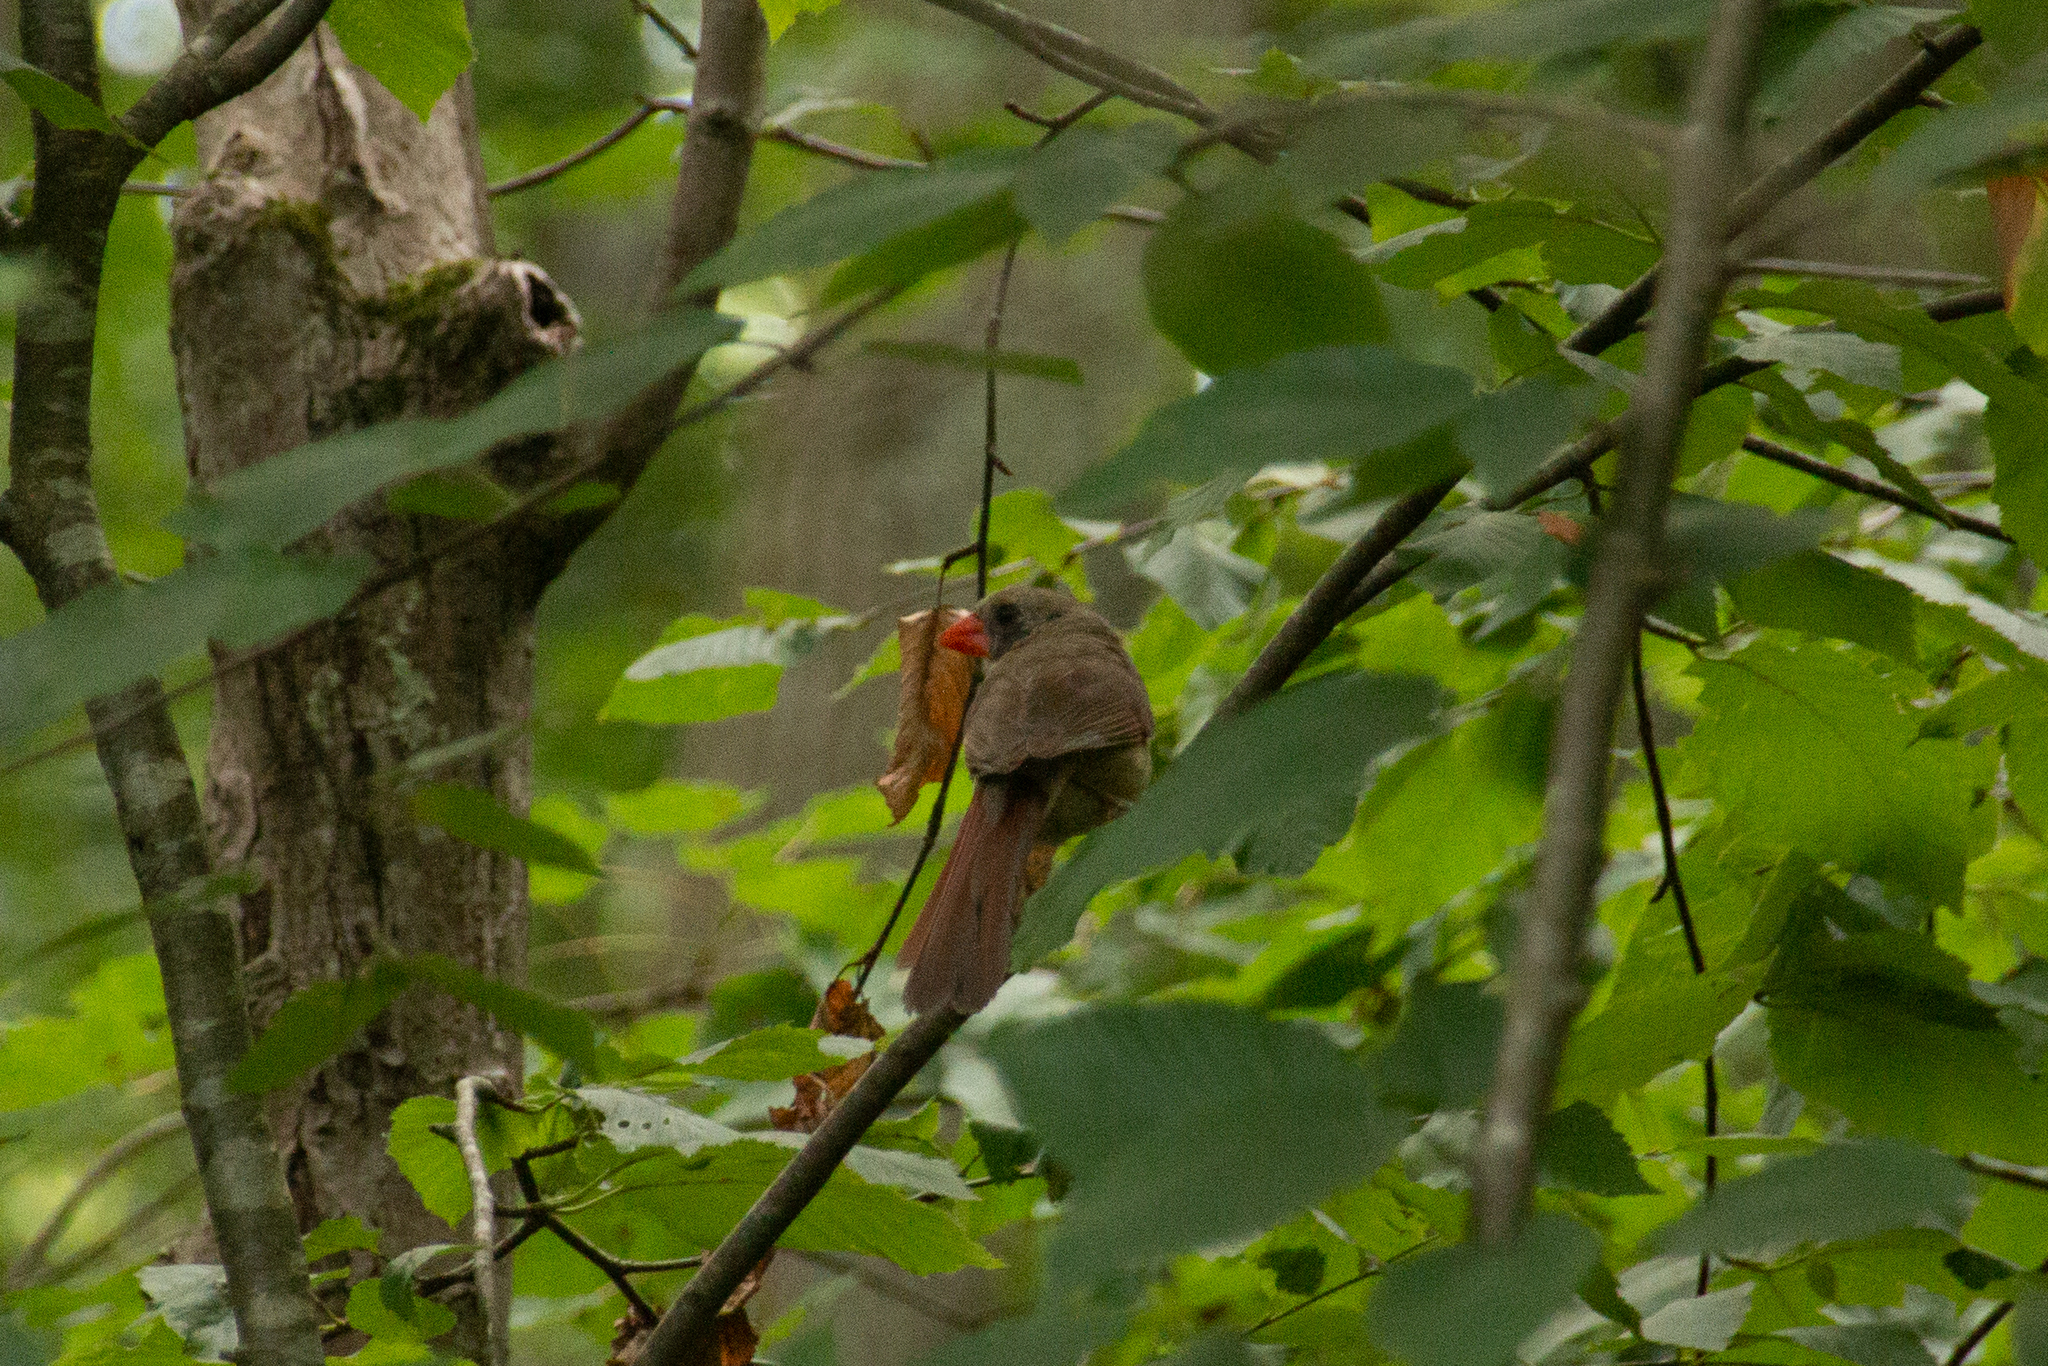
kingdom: Animalia
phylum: Chordata
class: Aves
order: Passeriformes
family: Cardinalidae
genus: Cardinalis
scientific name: Cardinalis cardinalis
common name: Northern cardinal
